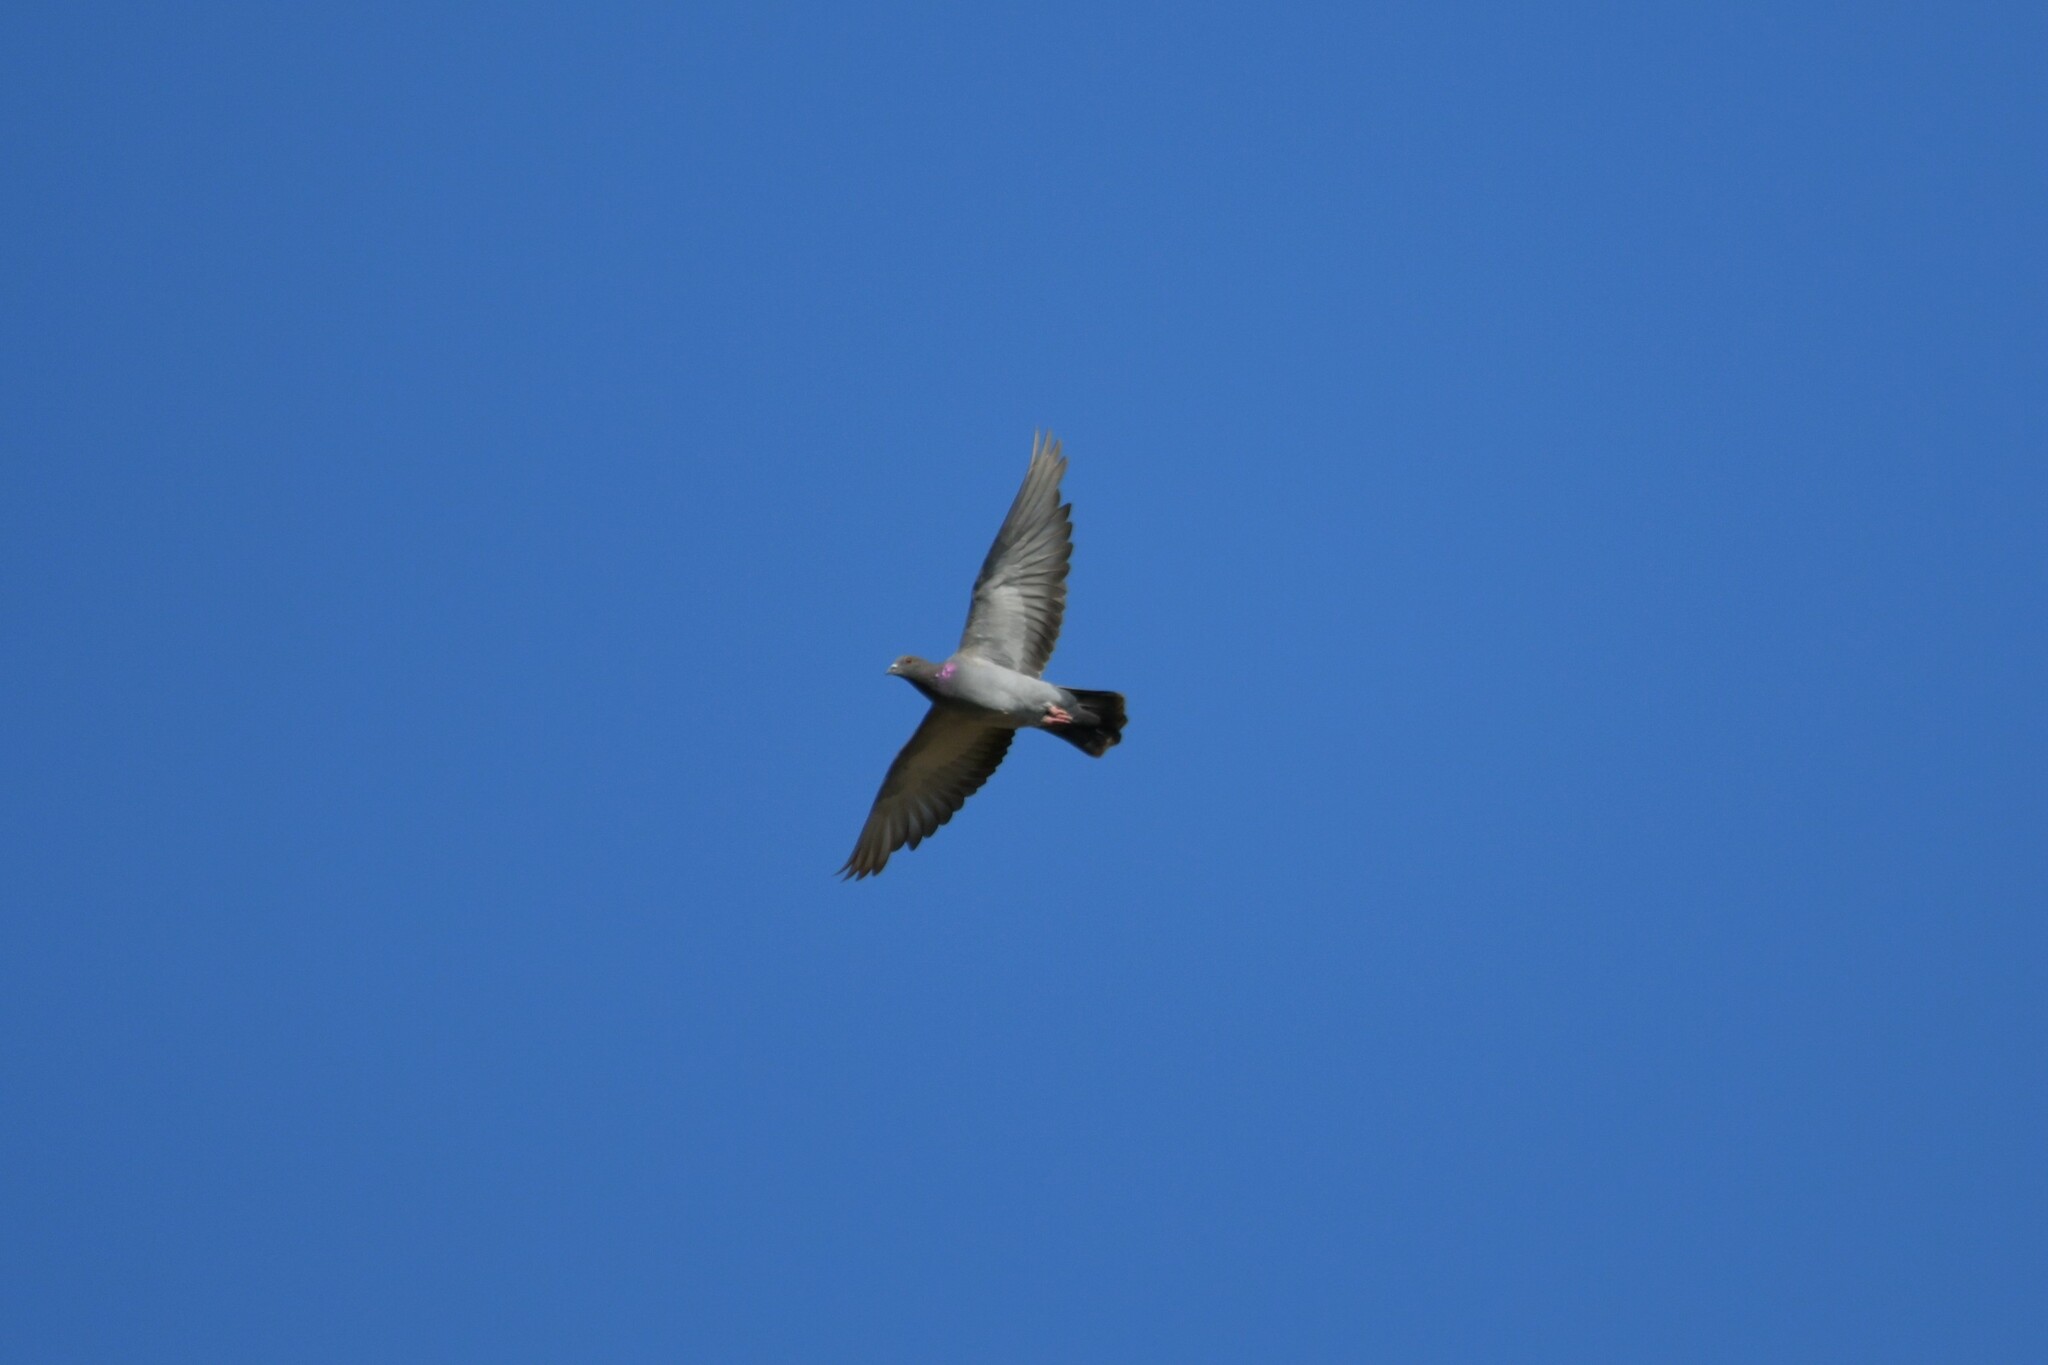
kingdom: Animalia
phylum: Chordata
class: Aves
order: Columbiformes
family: Columbidae
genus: Columba
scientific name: Columba livia
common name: Rock pigeon
